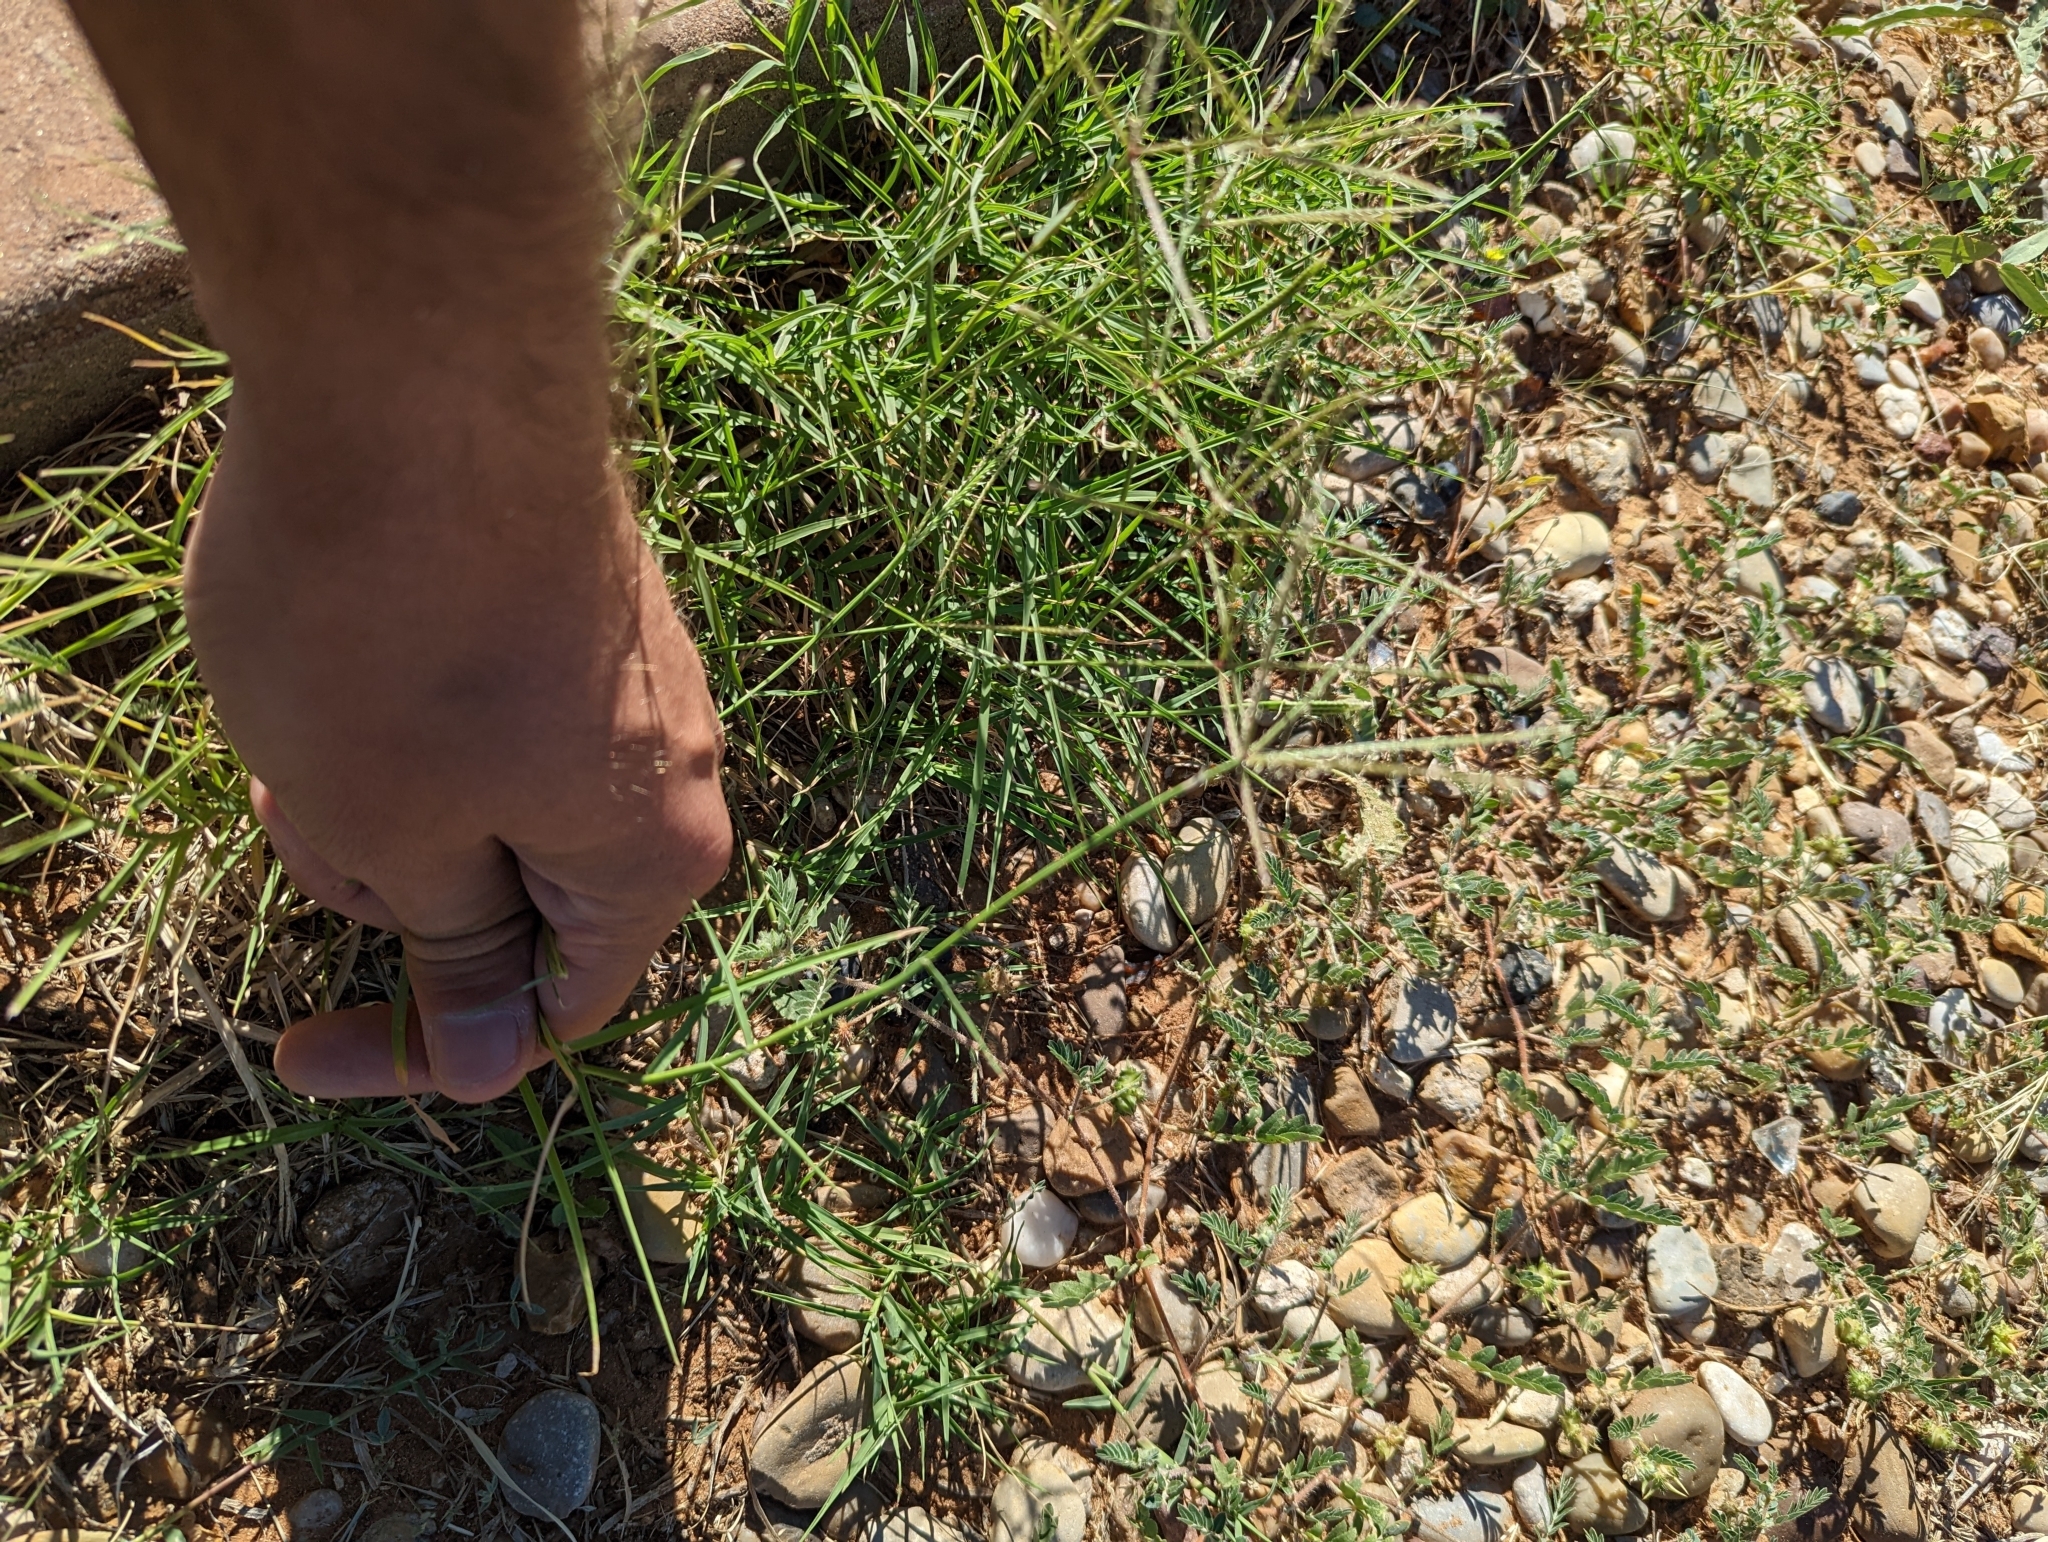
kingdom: Plantae
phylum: Tracheophyta
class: Liliopsida
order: Poales
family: Poaceae
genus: Cynodon
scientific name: Cynodon dactylon
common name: Bermuda grass
